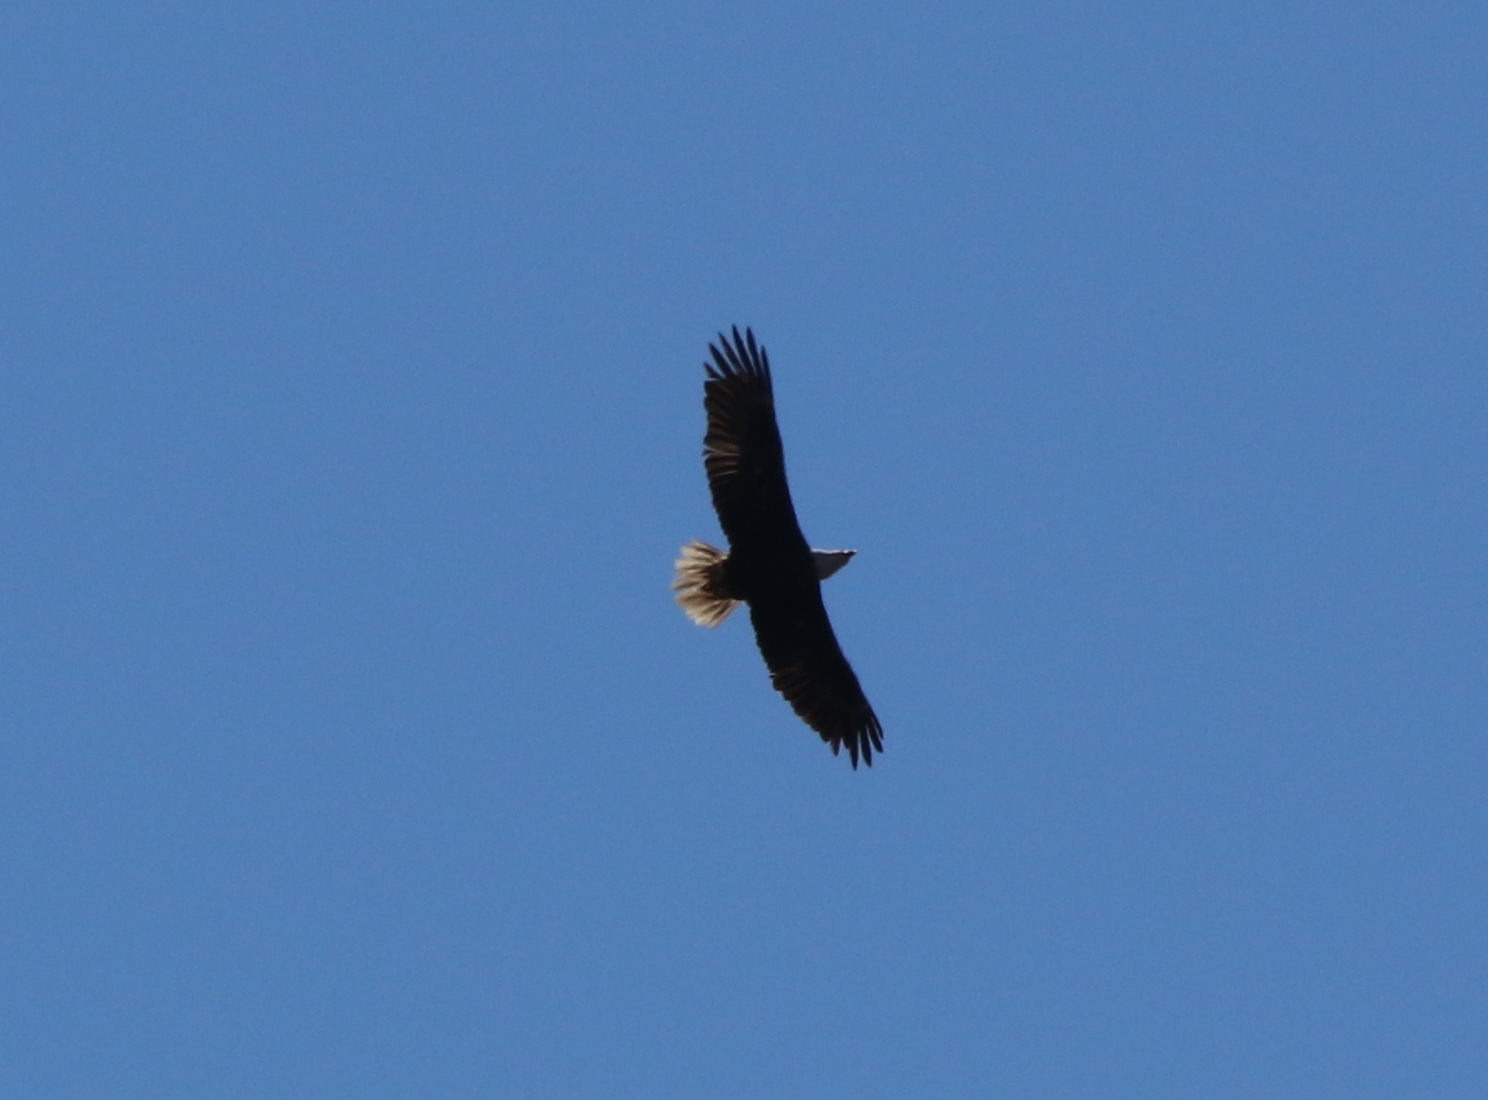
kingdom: Animalia
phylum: Chordata
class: Aves
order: Accipitriformes
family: Accipitridae
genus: Haliaeetus
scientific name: Haliaeetus leucocephalus
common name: Bald eagle
